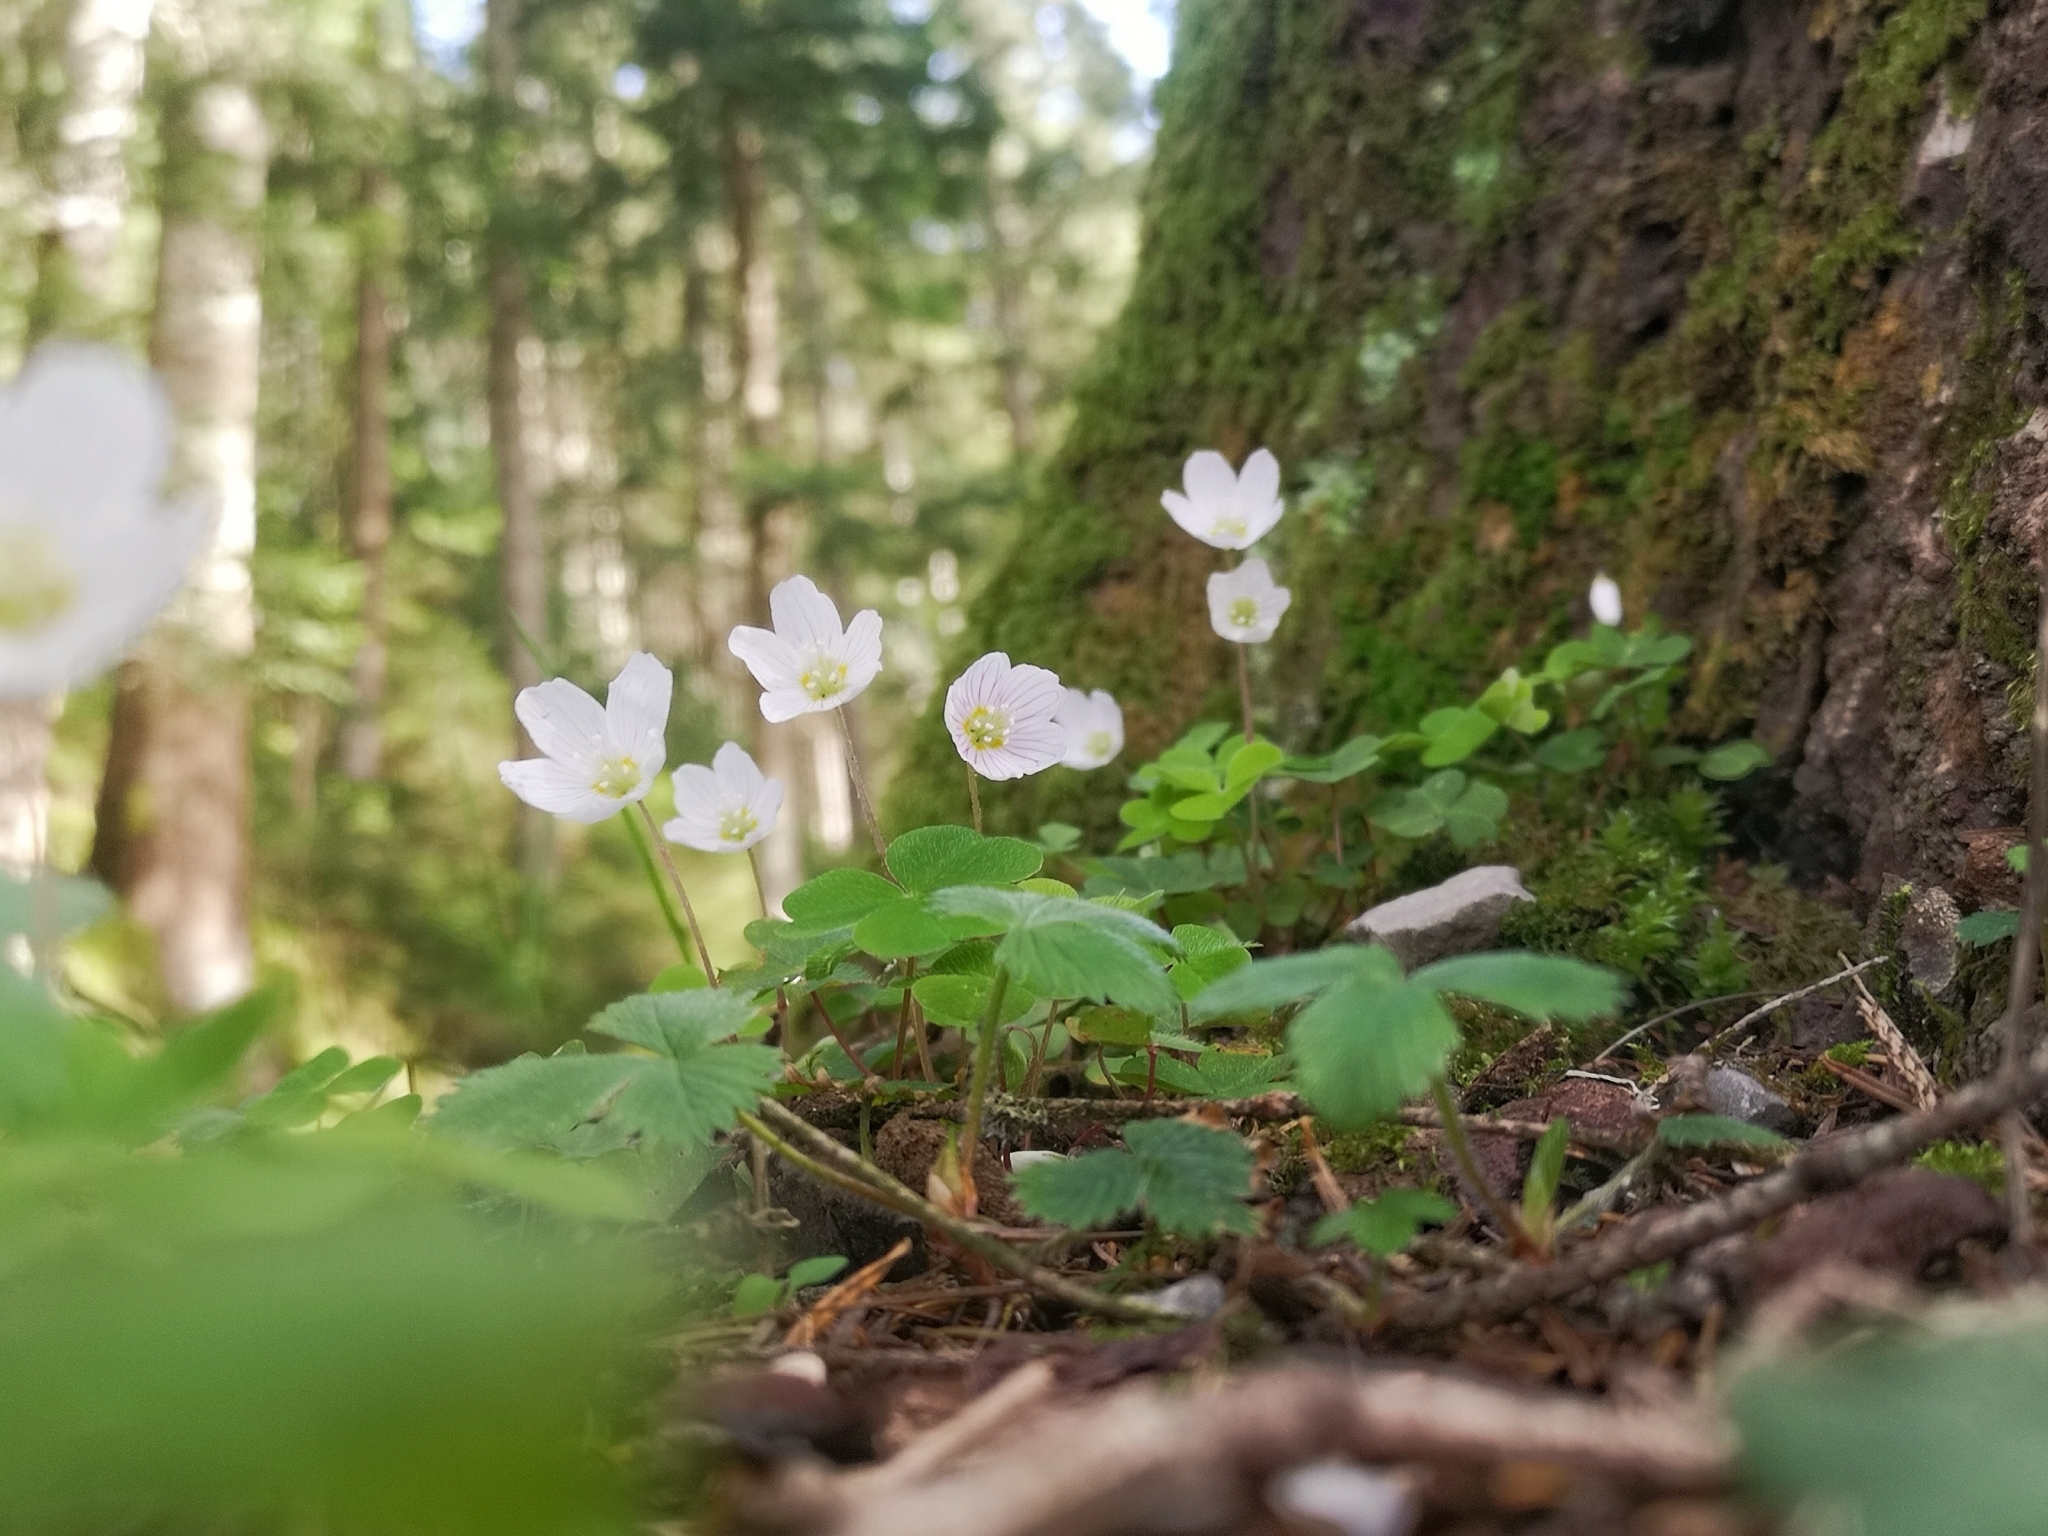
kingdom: Plantae
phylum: Tracheophyta
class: Magnoliopsida
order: Oxalidales
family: Oxalidaceae
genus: Oxalis
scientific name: Oxalis acetosella
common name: Wood-sorrel
